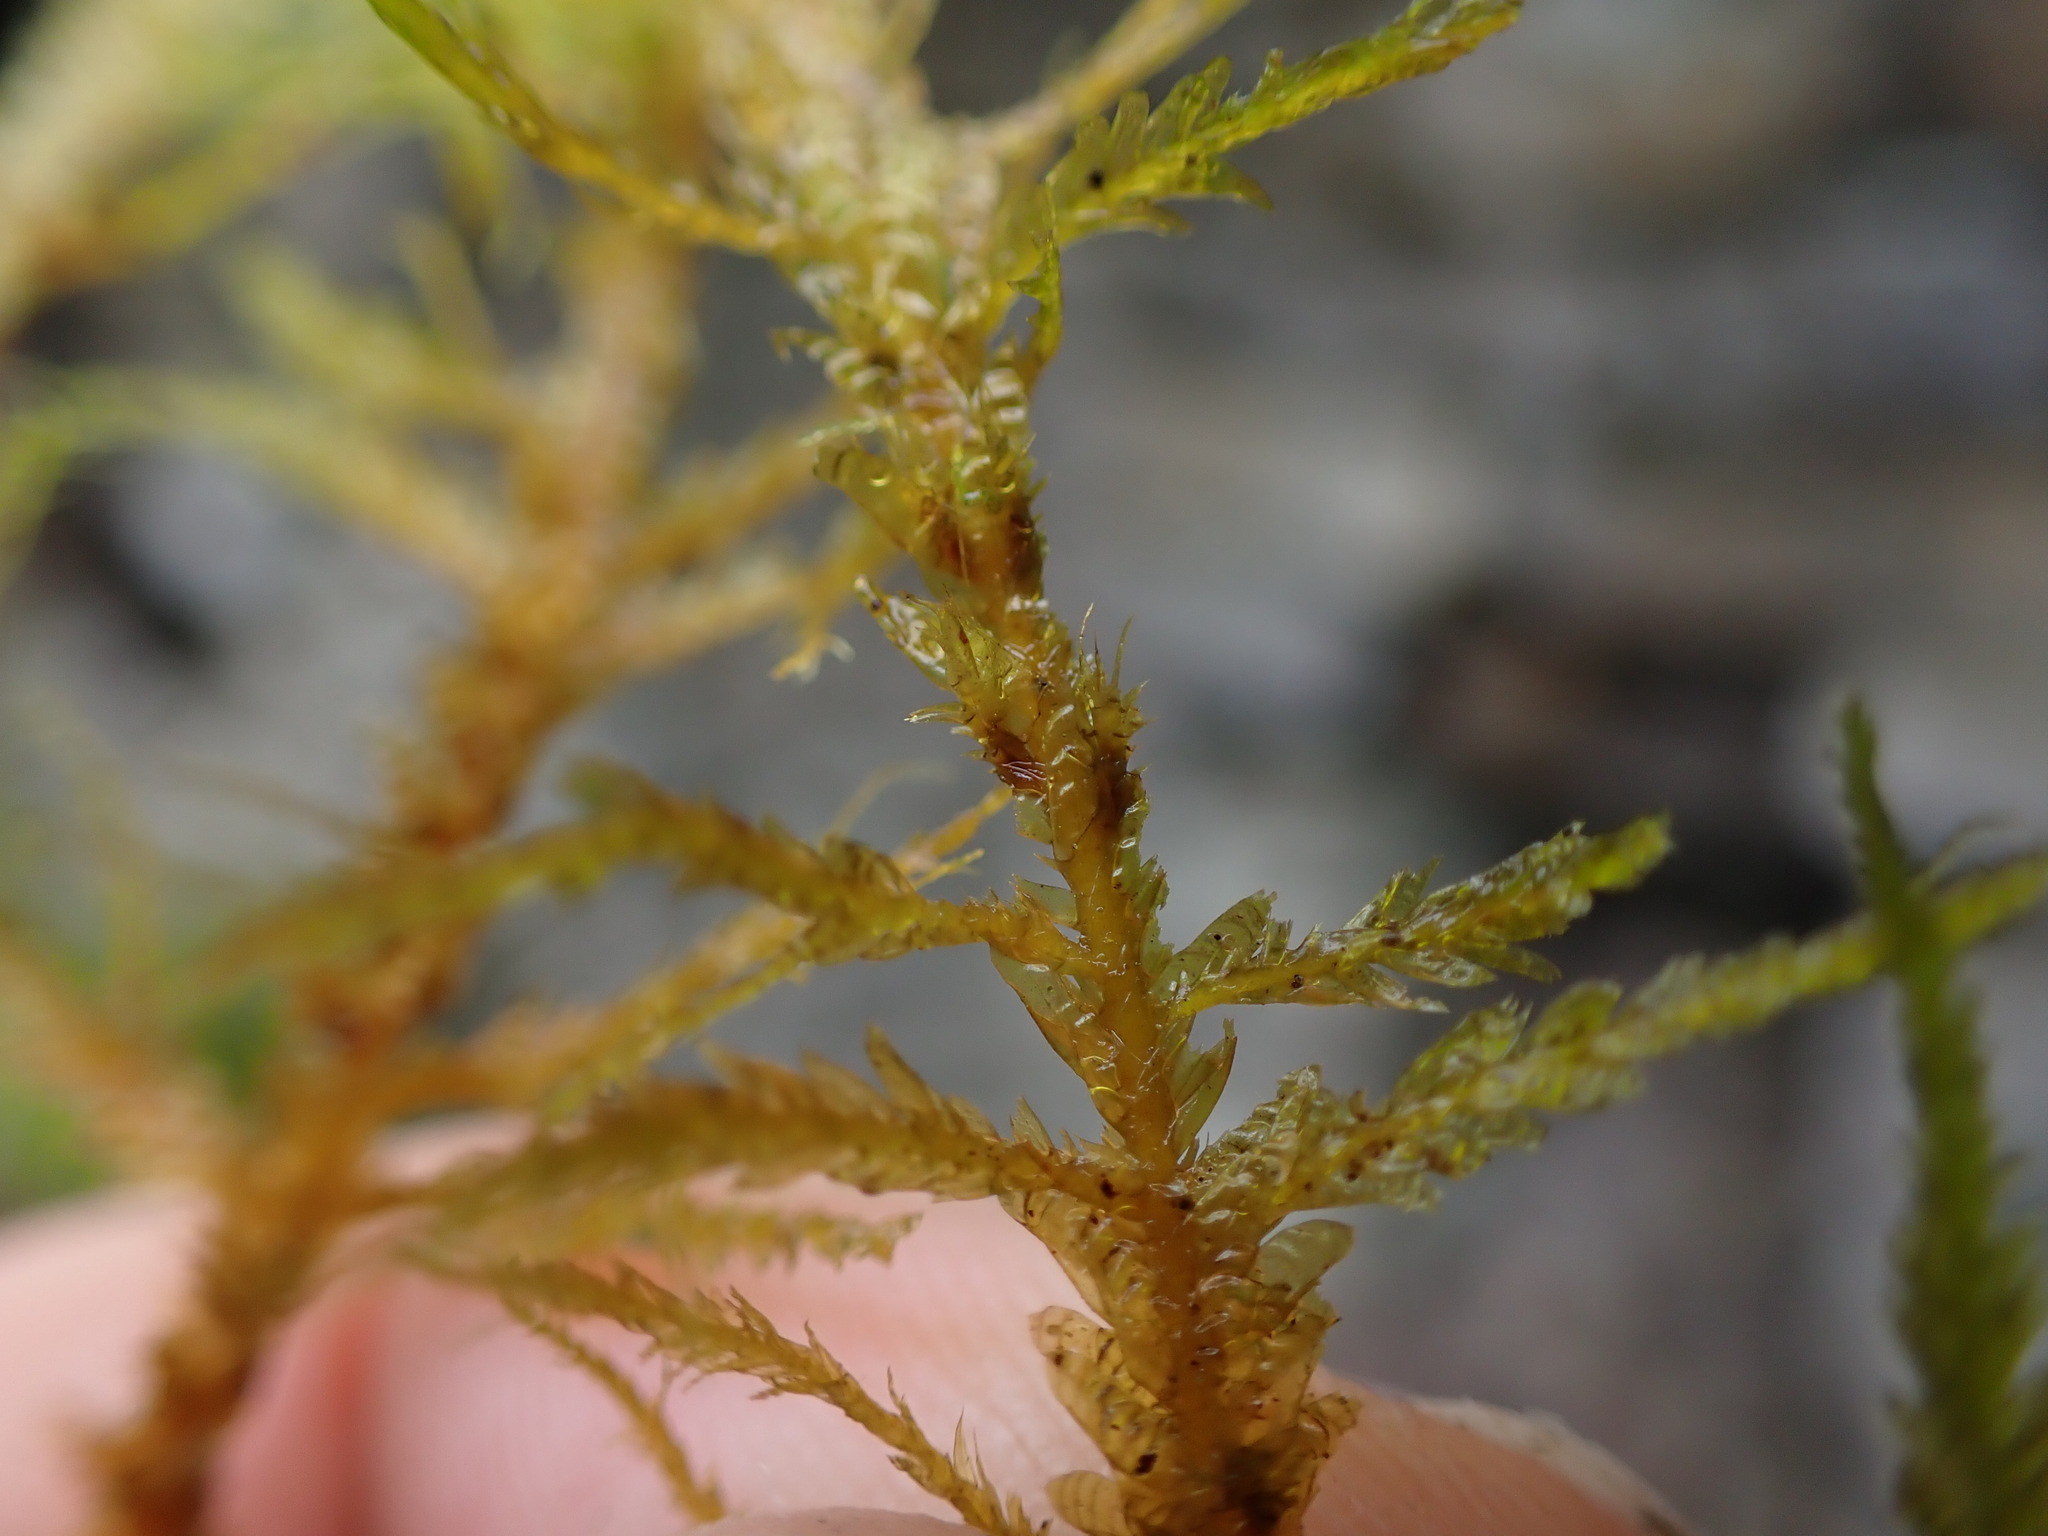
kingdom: Plantae
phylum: Bryophyta
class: Bryopsida
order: Hypnales
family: Neckeraceae
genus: Metaneckera
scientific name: Metaneckera menziesii
